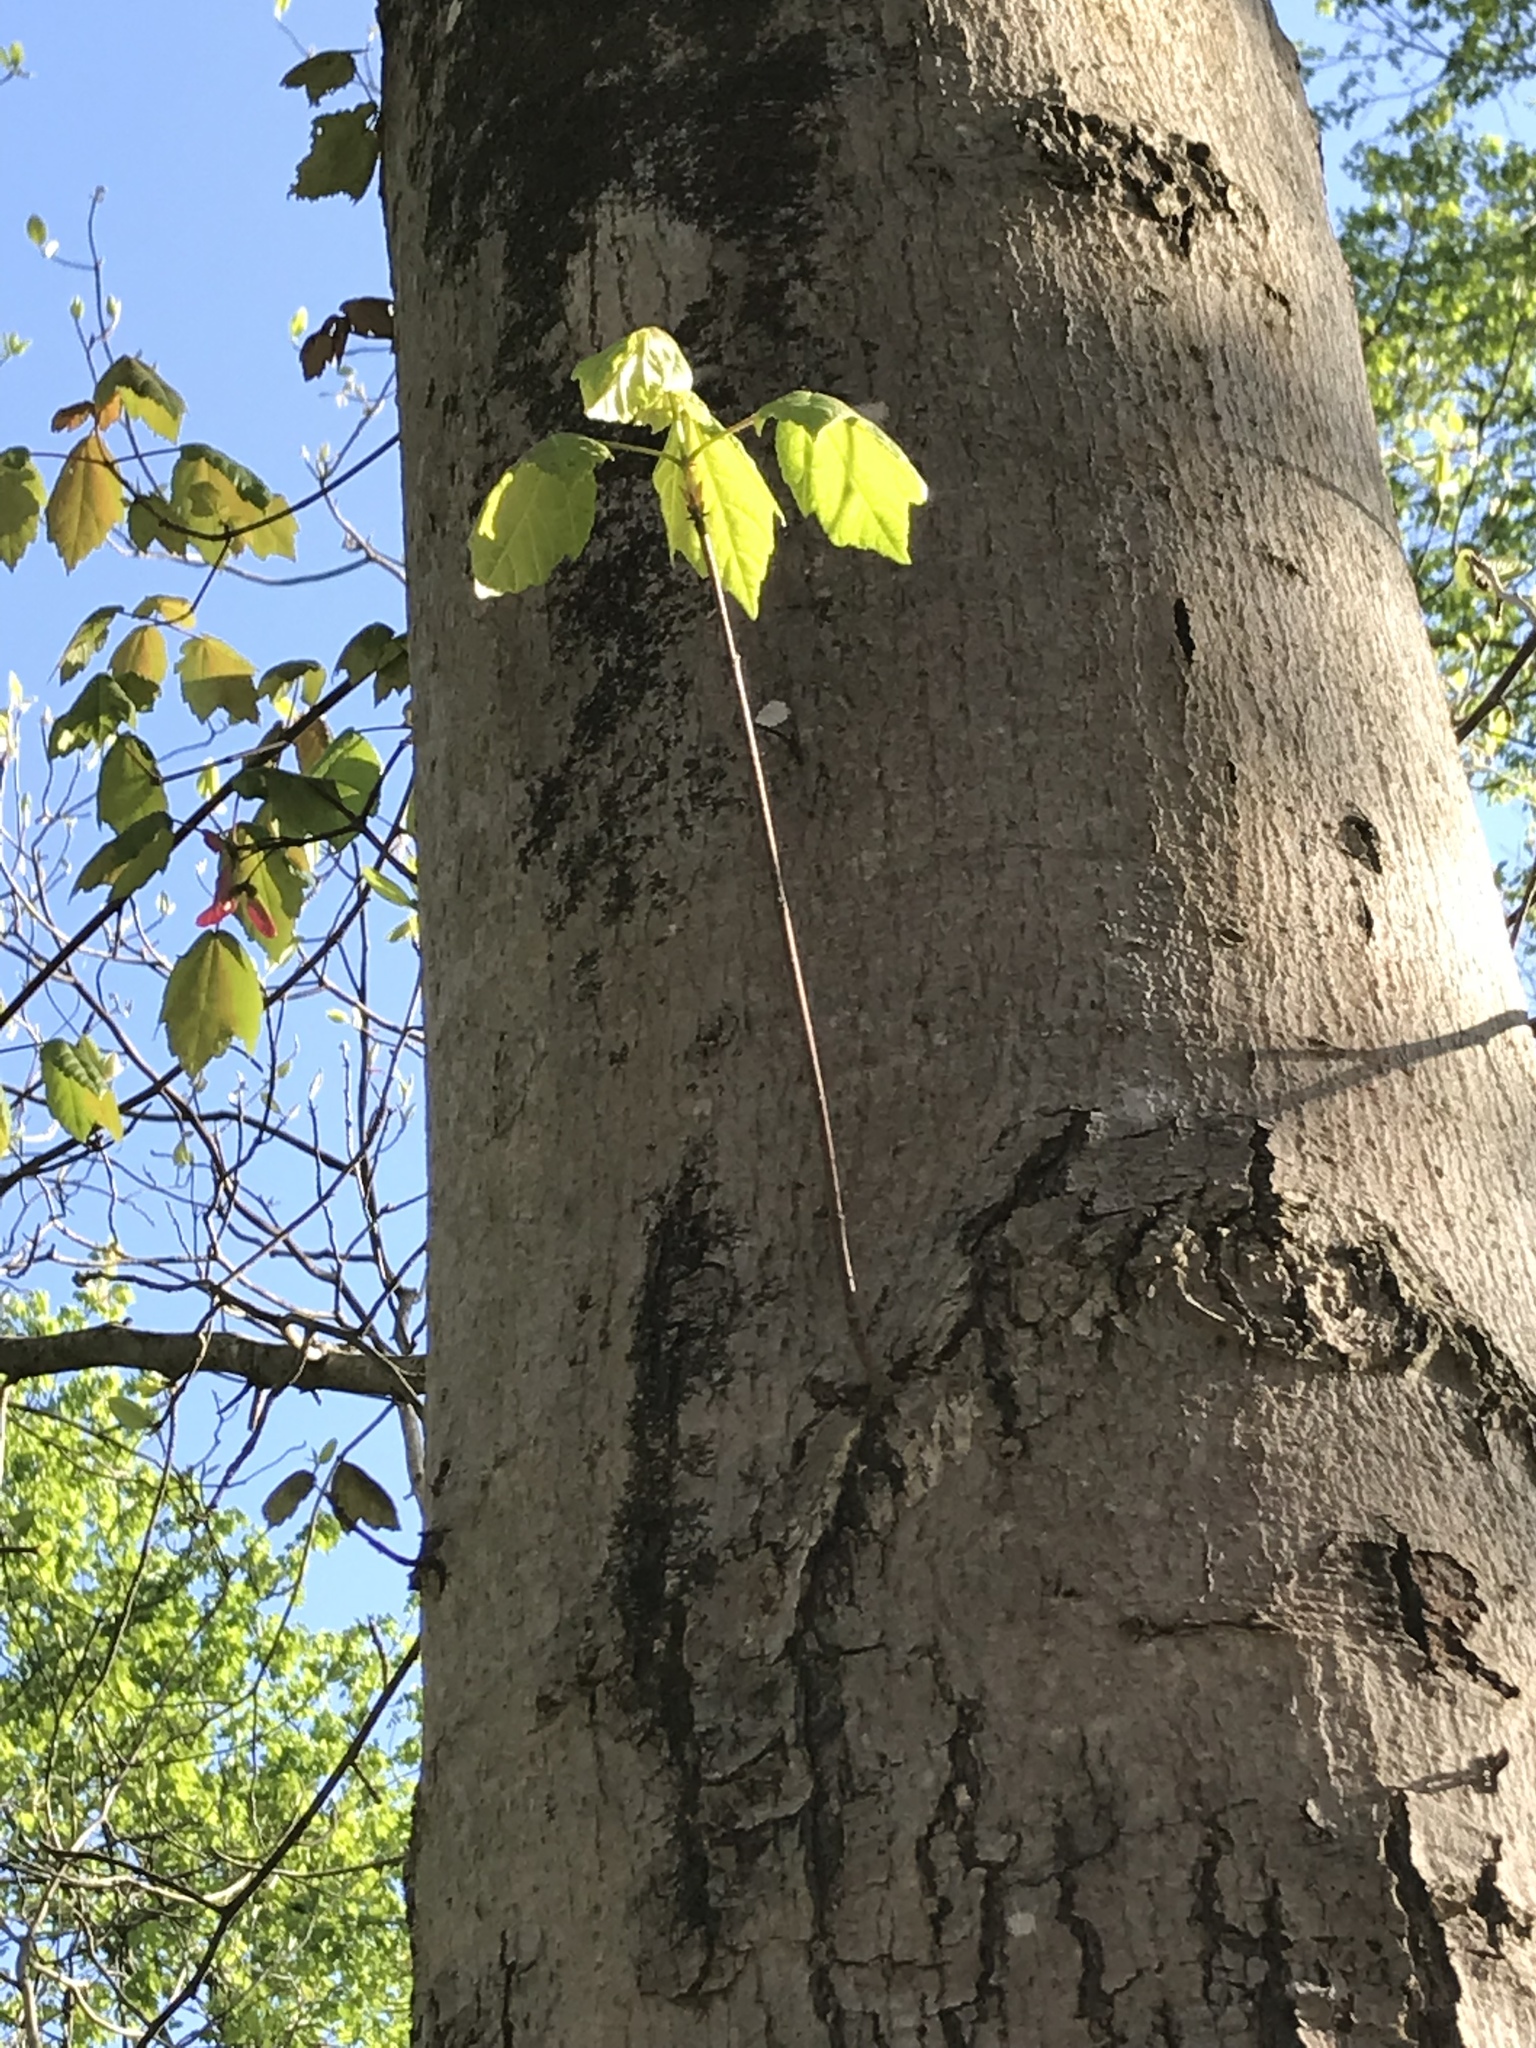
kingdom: Plantae
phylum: Tracheophyta
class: Magnoliopsida
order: Sapindales
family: Sapindaceae
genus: Acer
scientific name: Acer rubrum
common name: Red maple
